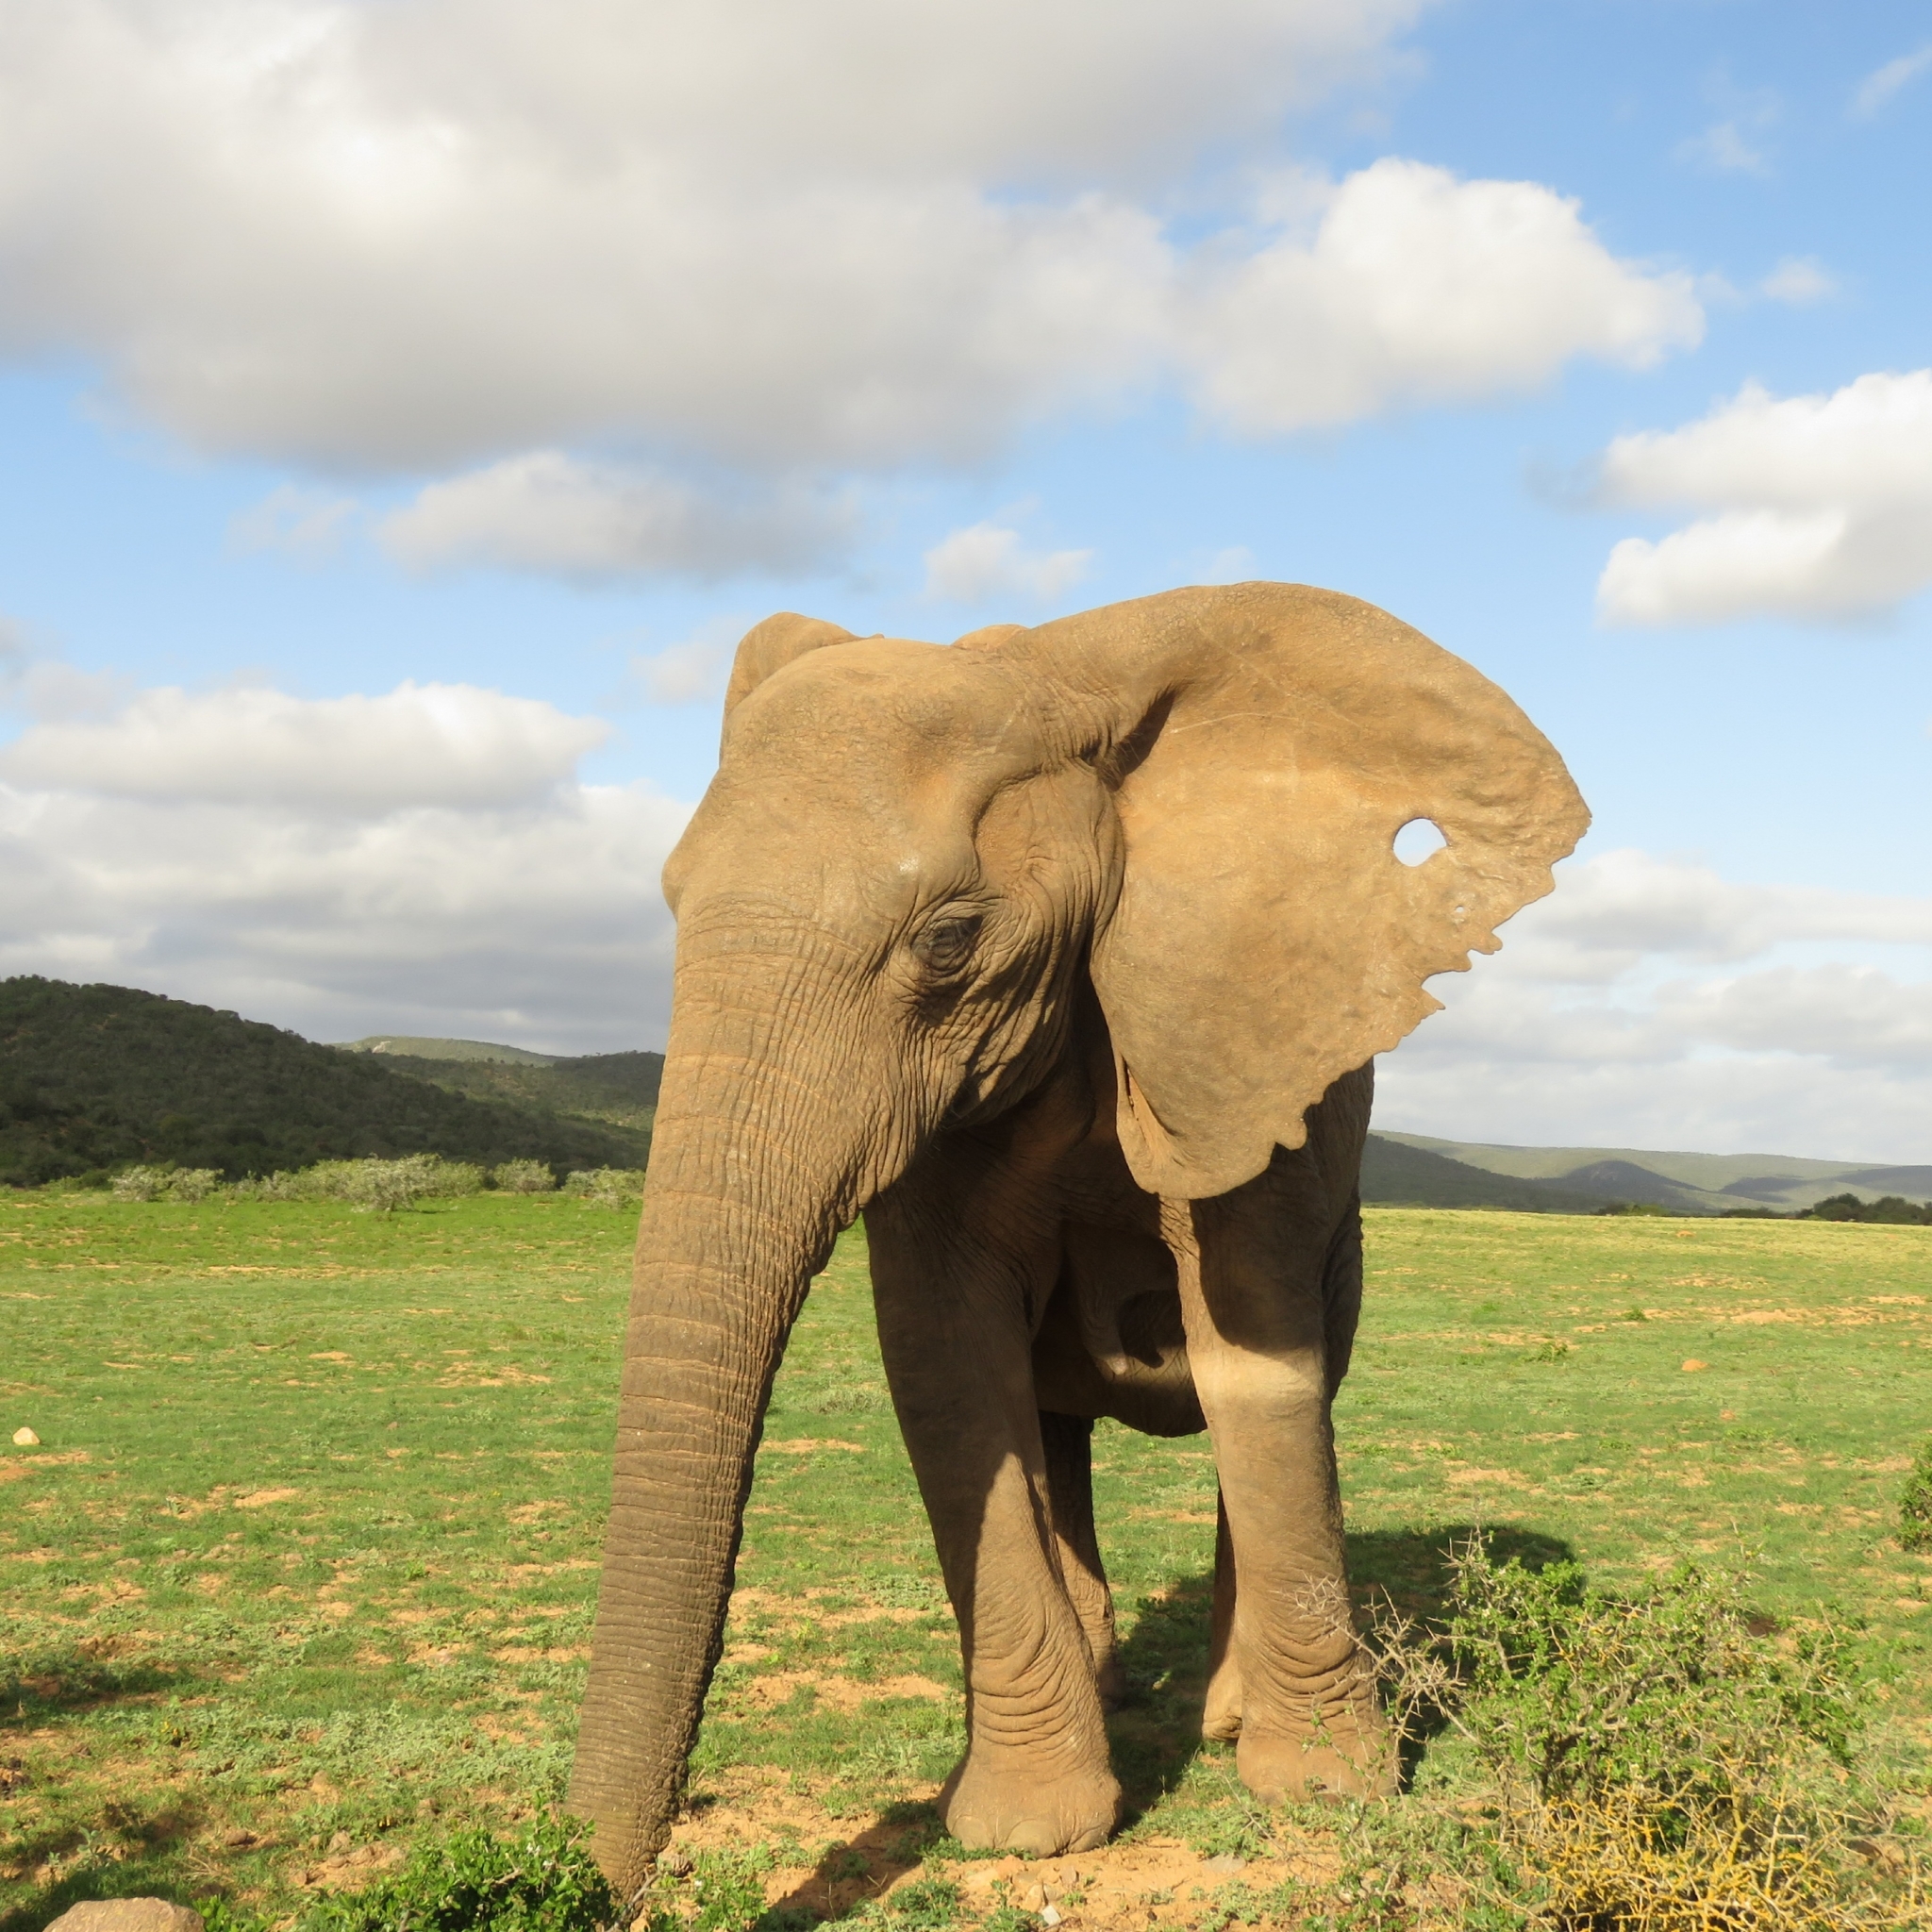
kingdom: Animalia
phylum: Chordata
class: Mammalia
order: Proboscidea
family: Elephantidae
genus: Loxodonta
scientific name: Loxodonta africana
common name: African elephant
